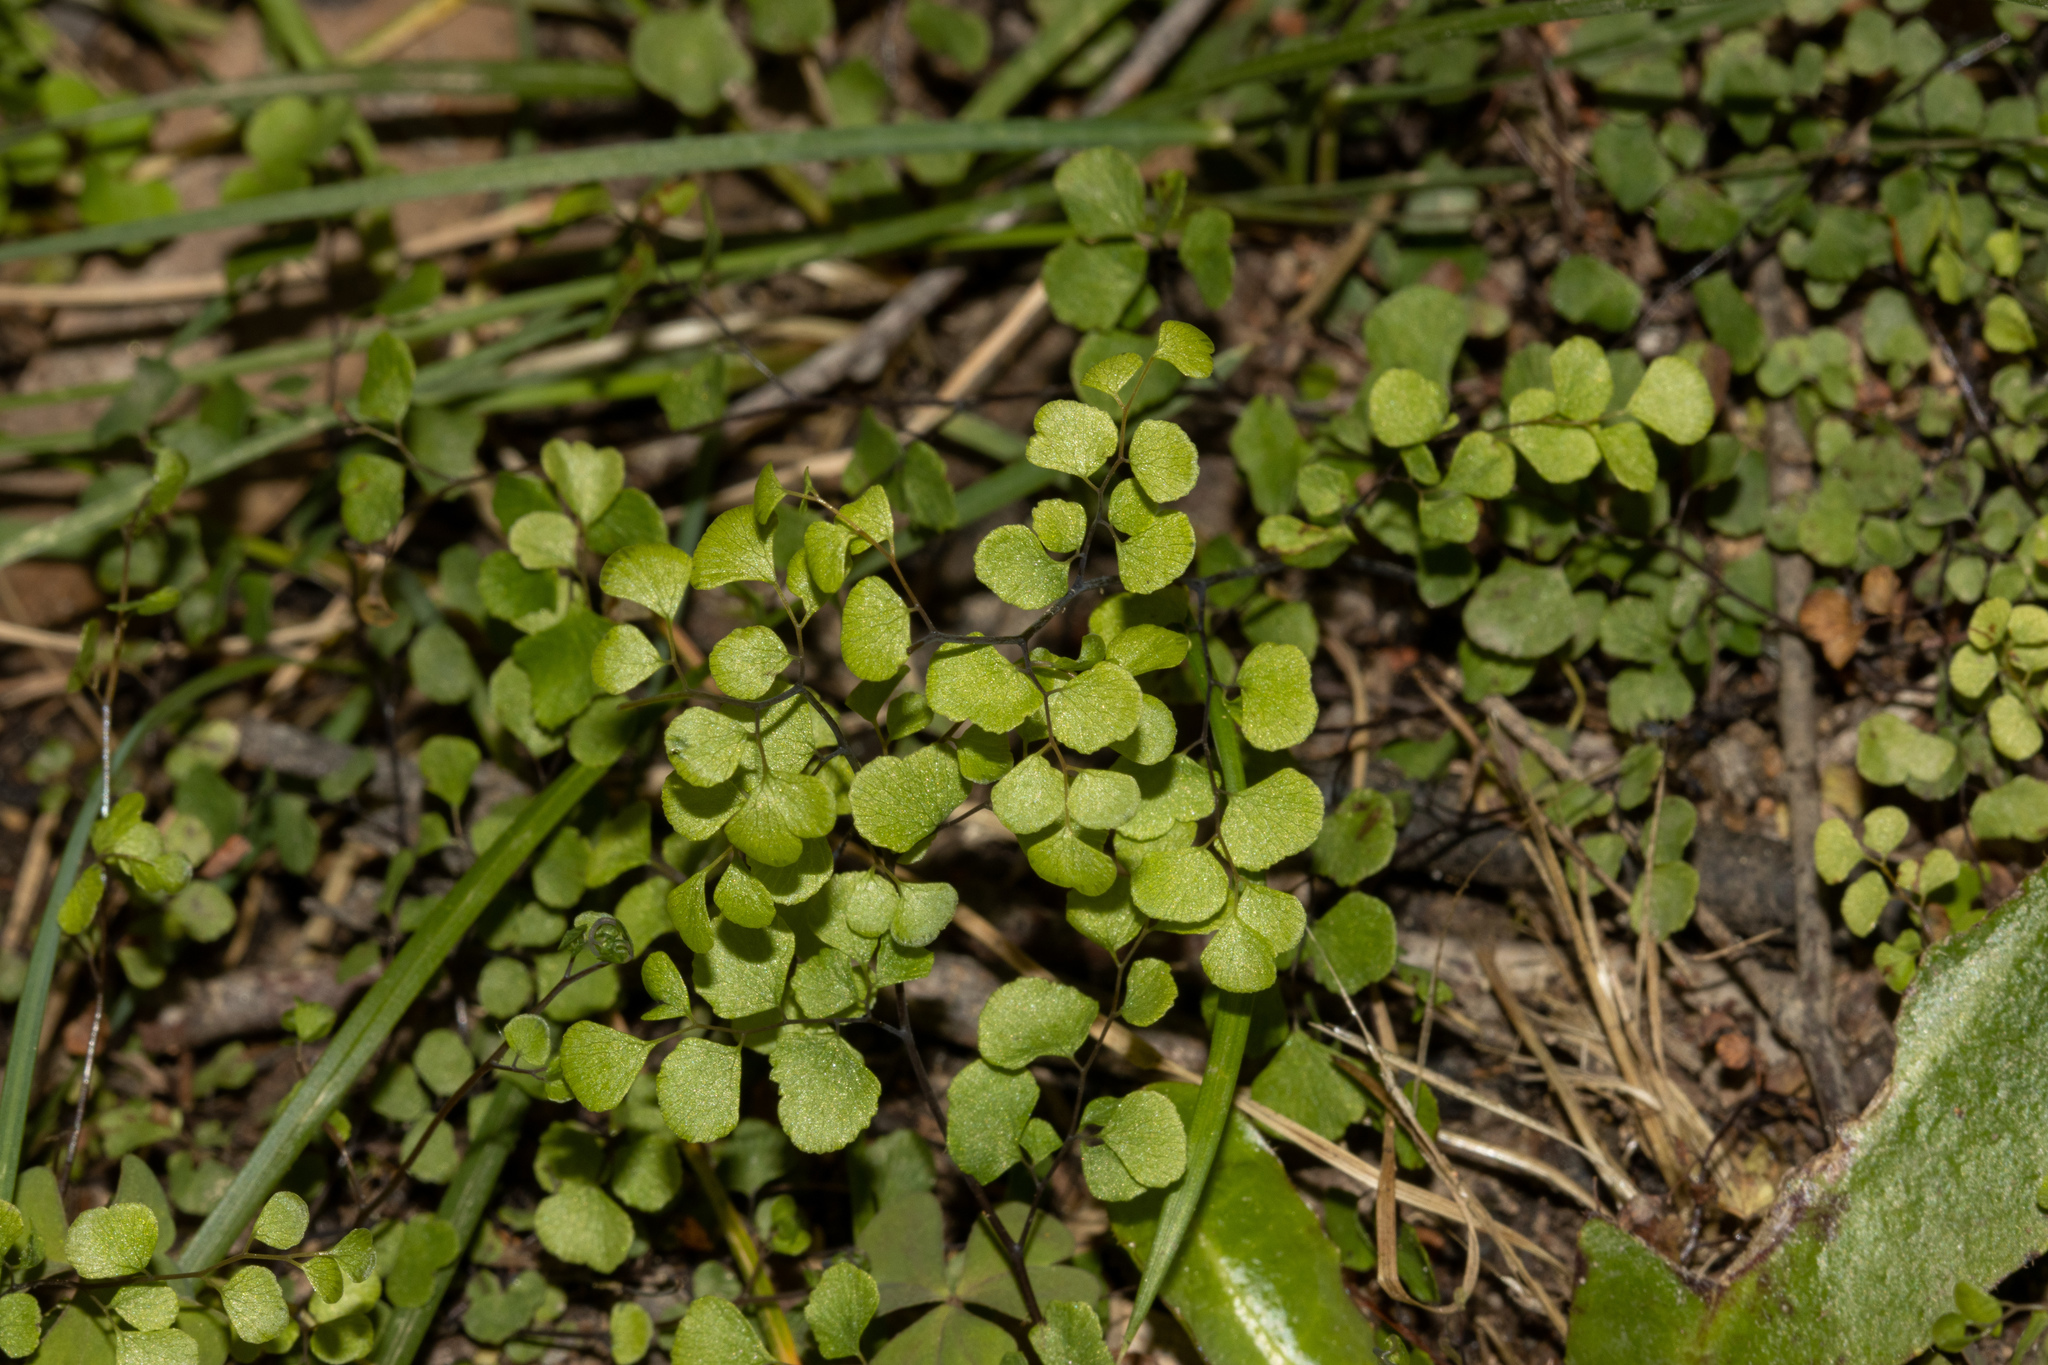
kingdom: Plantae
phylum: Tracheophyta
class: Polypodiopsida
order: Polypodiales
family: Pteridaceae
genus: Adiantum
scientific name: Adiantum aethiopicum
